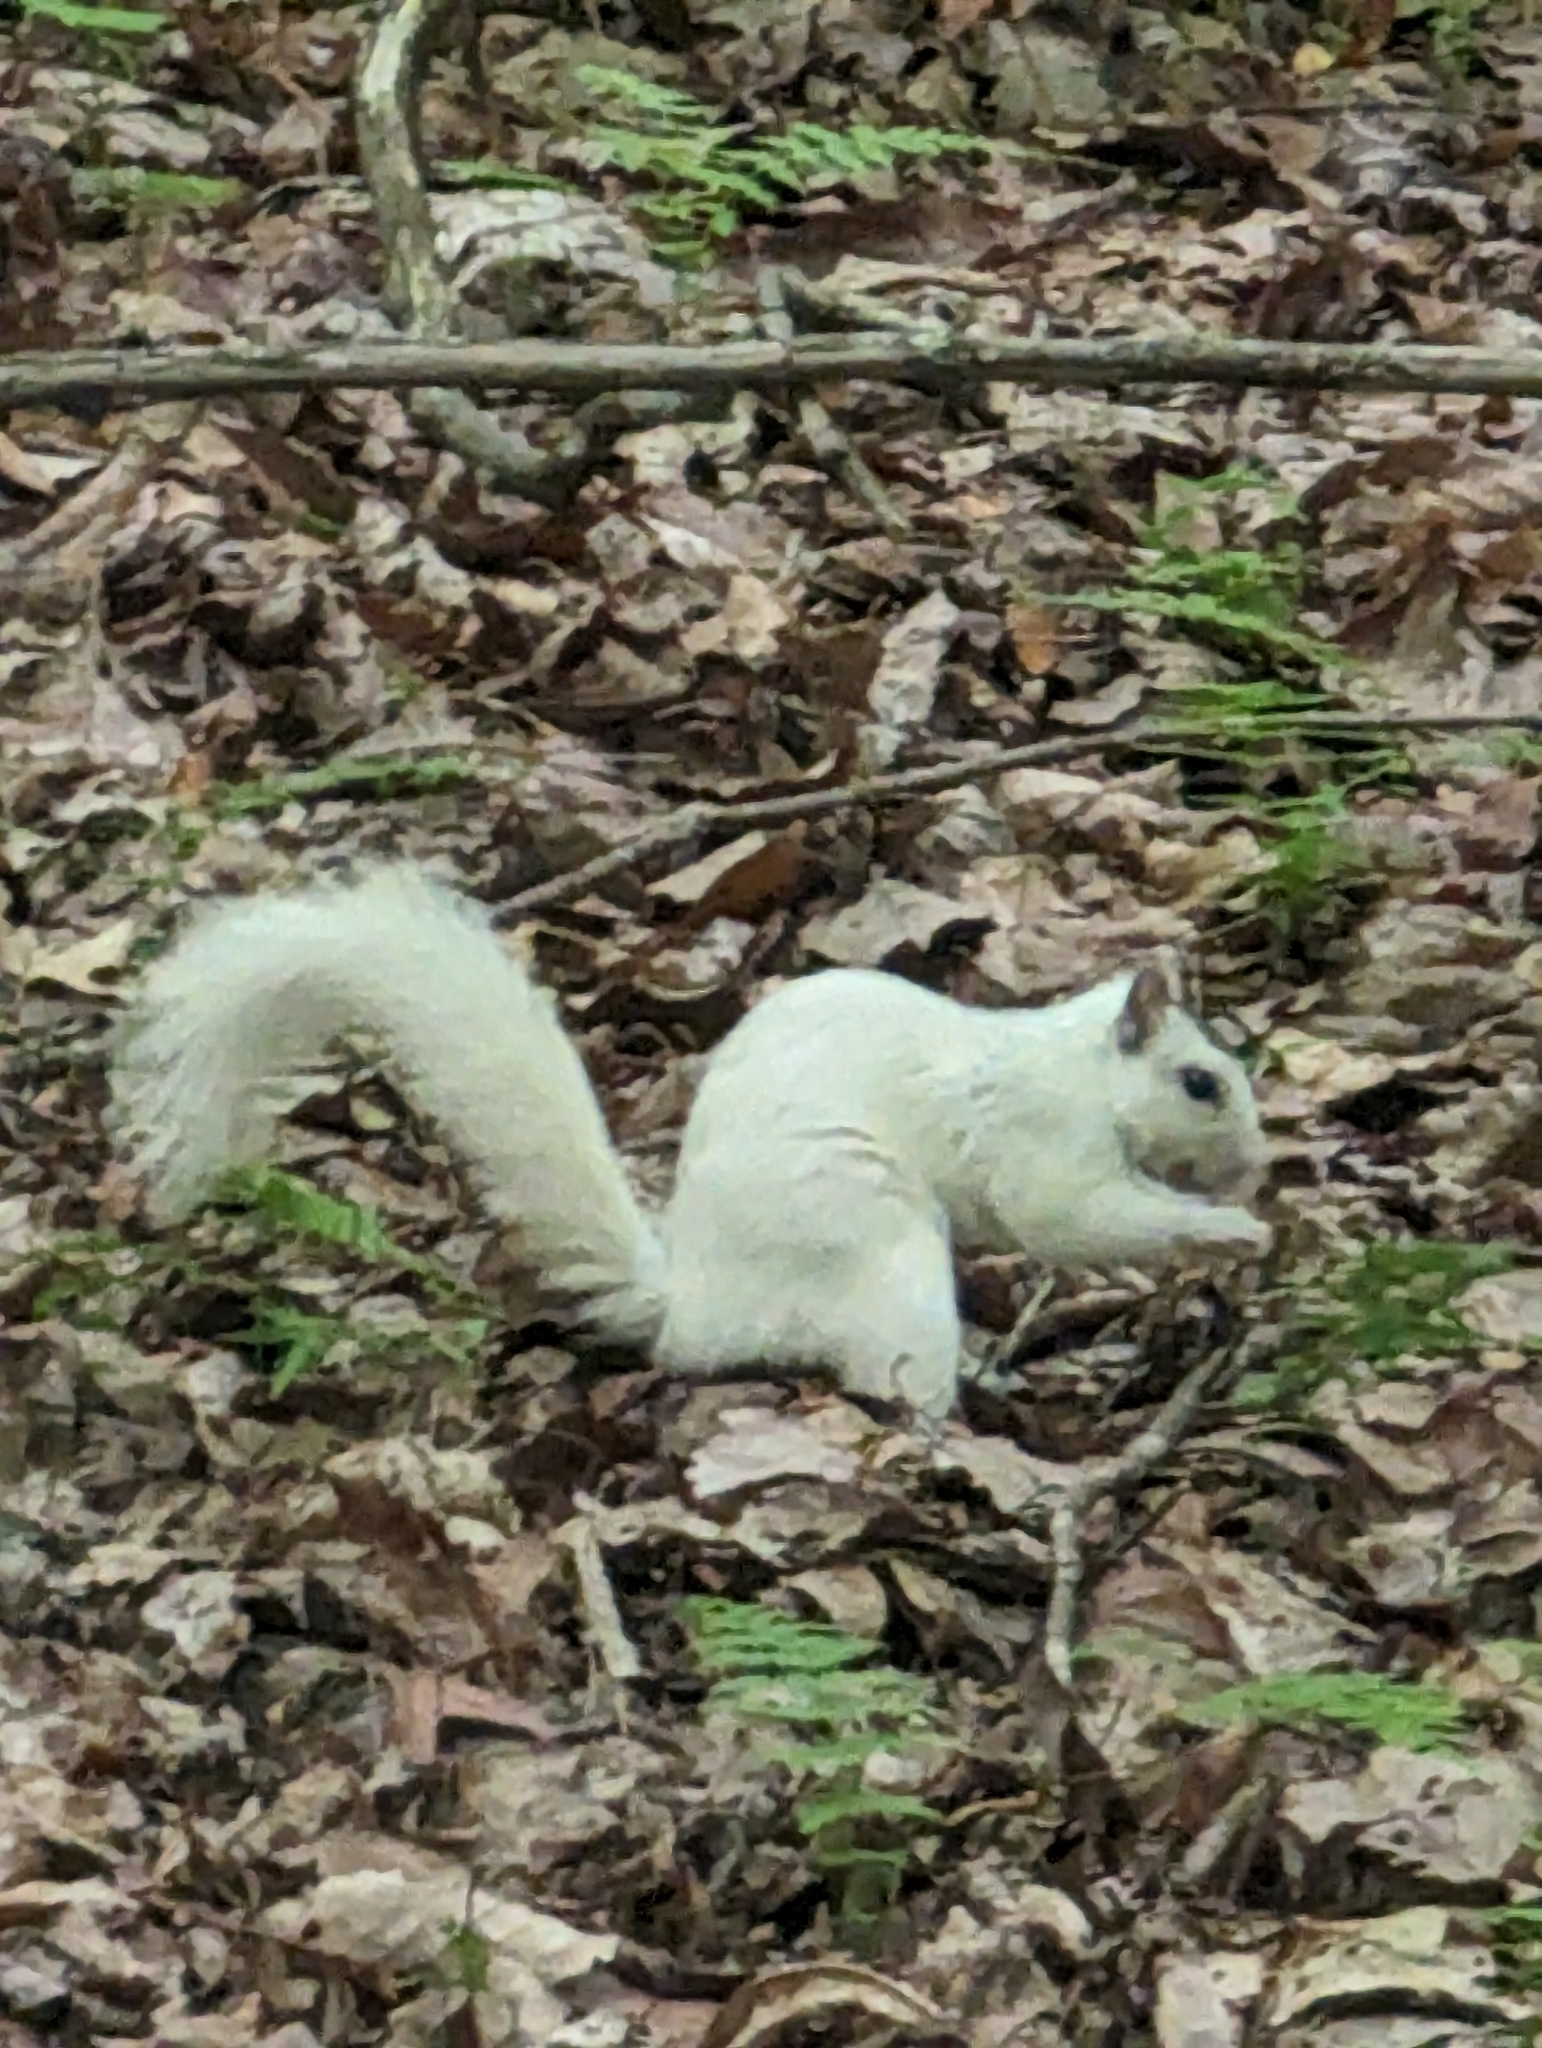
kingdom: Animalia
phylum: Chordata
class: Mammalia
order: Rodentia
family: Sciuridae
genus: Sciurus
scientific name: Sciurus carolinensis
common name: Eastern gray squirrel
